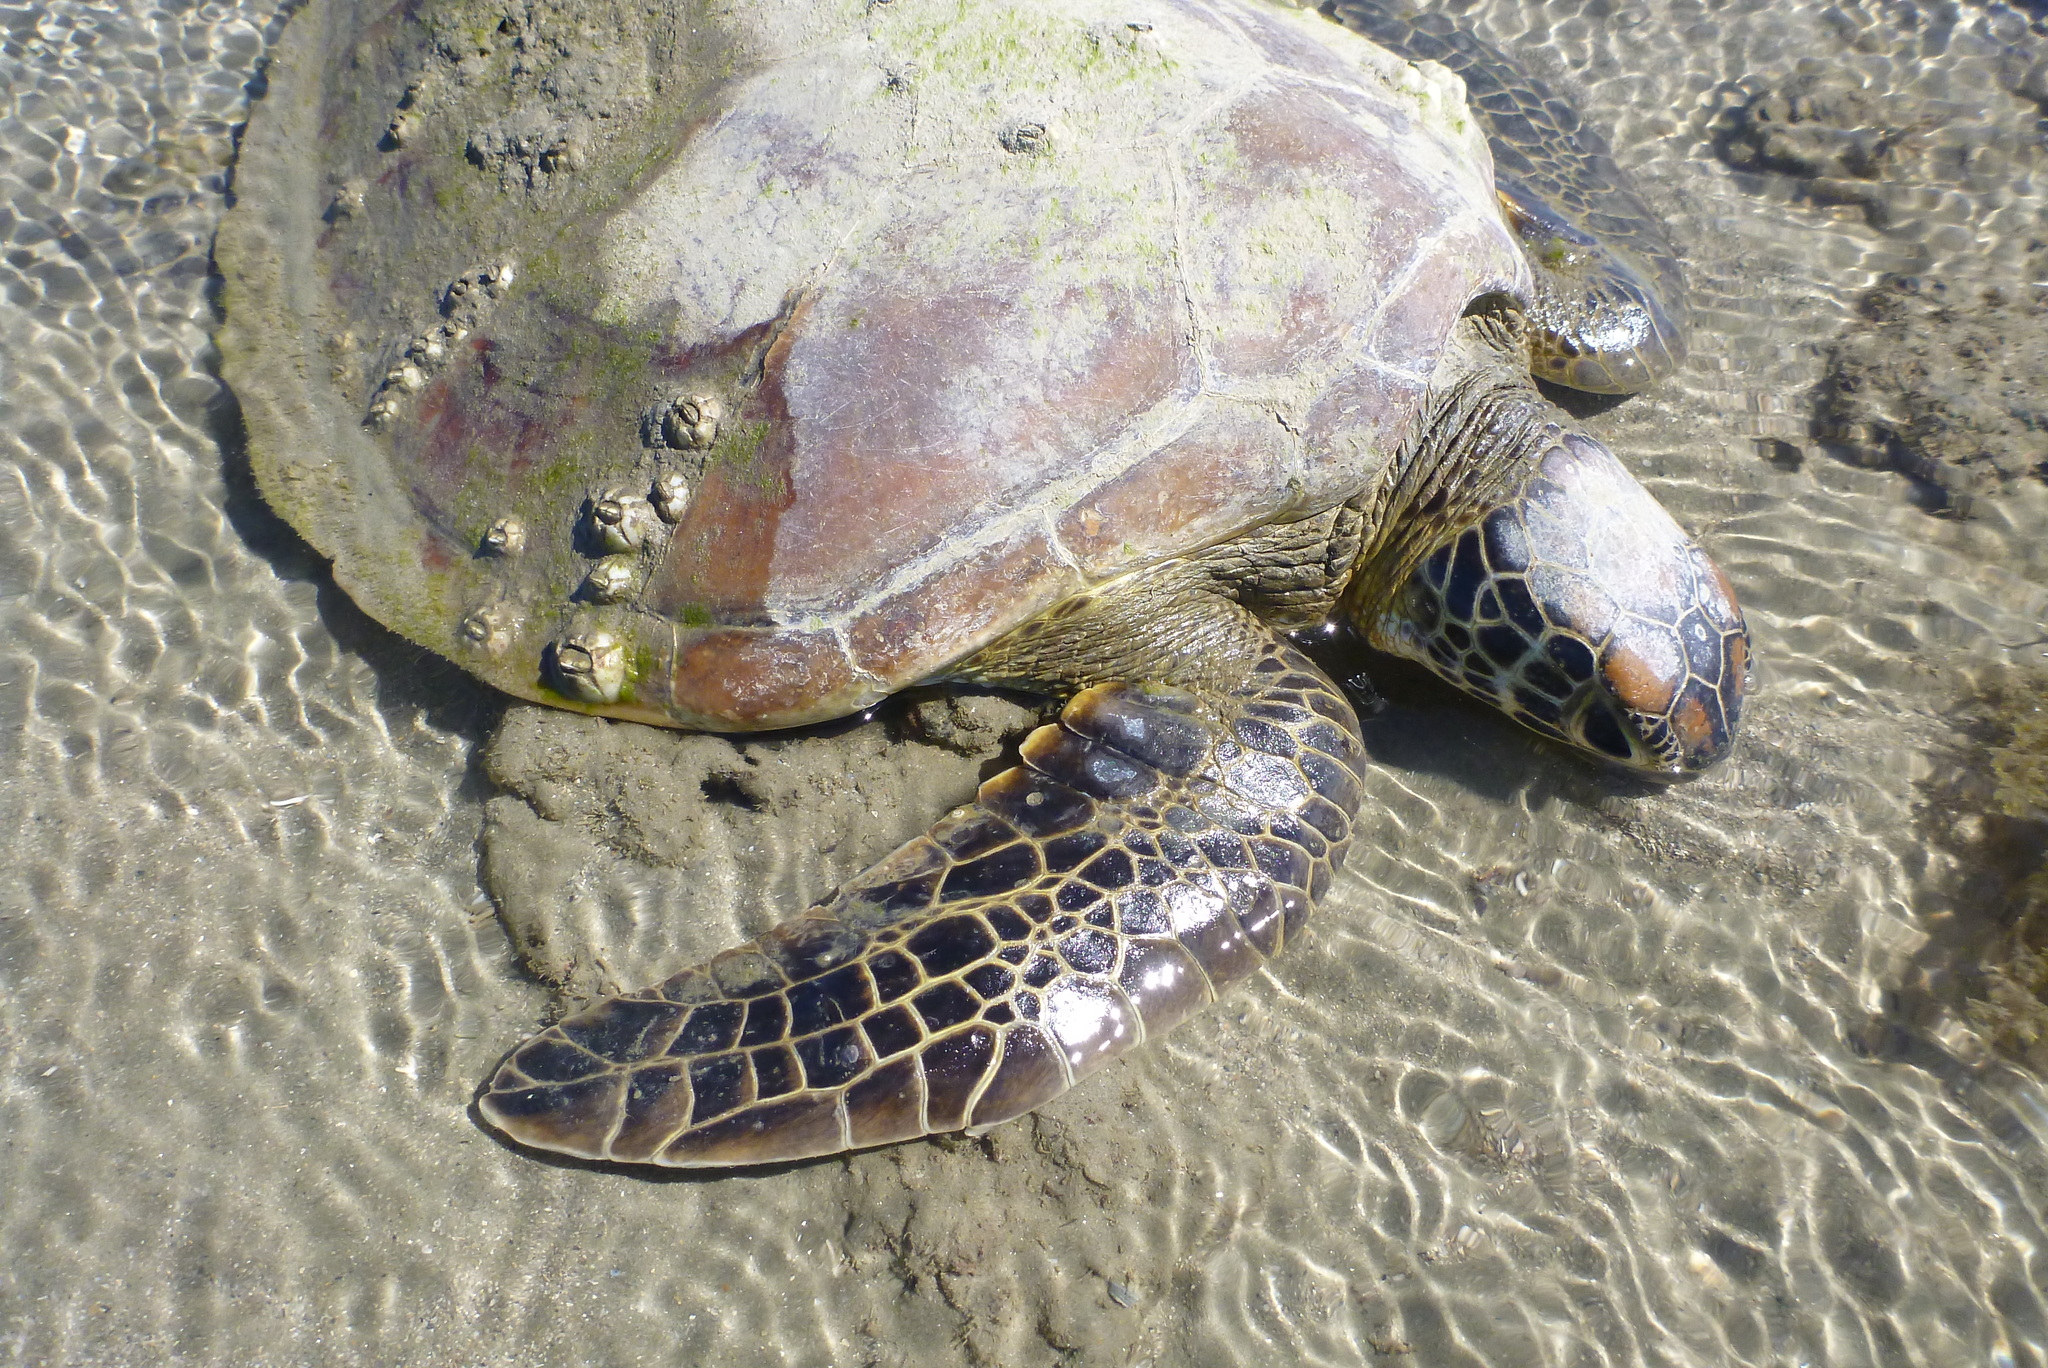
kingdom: Animalia
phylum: Chordata
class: Testudines
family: Cheloniidae
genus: Chelonia
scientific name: Chelonia mydas
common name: Green turtle
